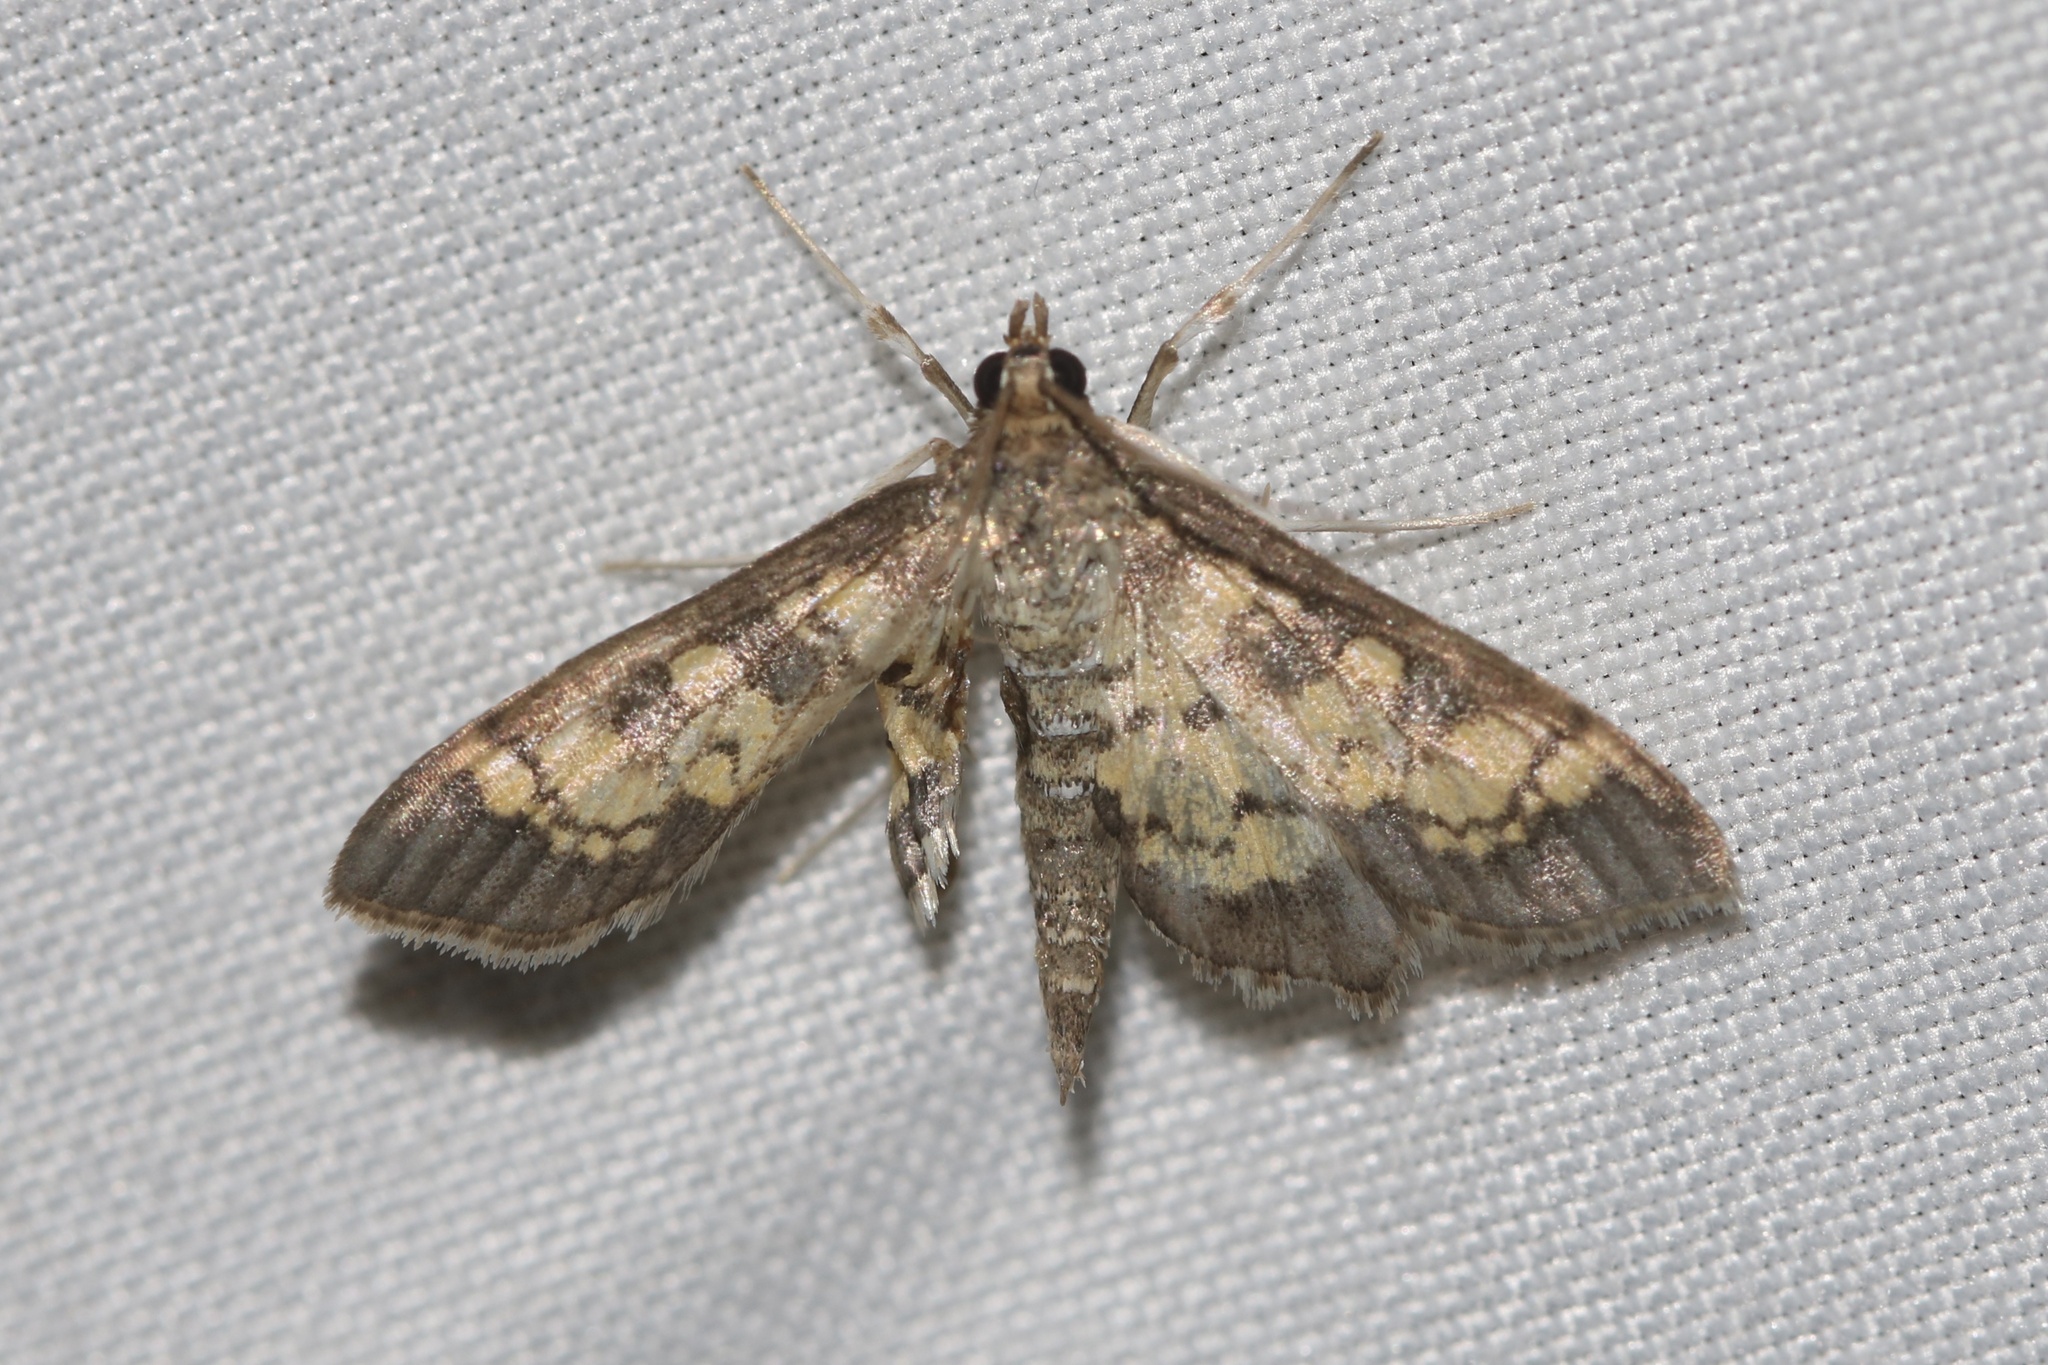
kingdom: Animalia
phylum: Arthropoda
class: Insecta
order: Lepidoptera
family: Crambidae
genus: Epipagis
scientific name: Epipagis adipaloides
